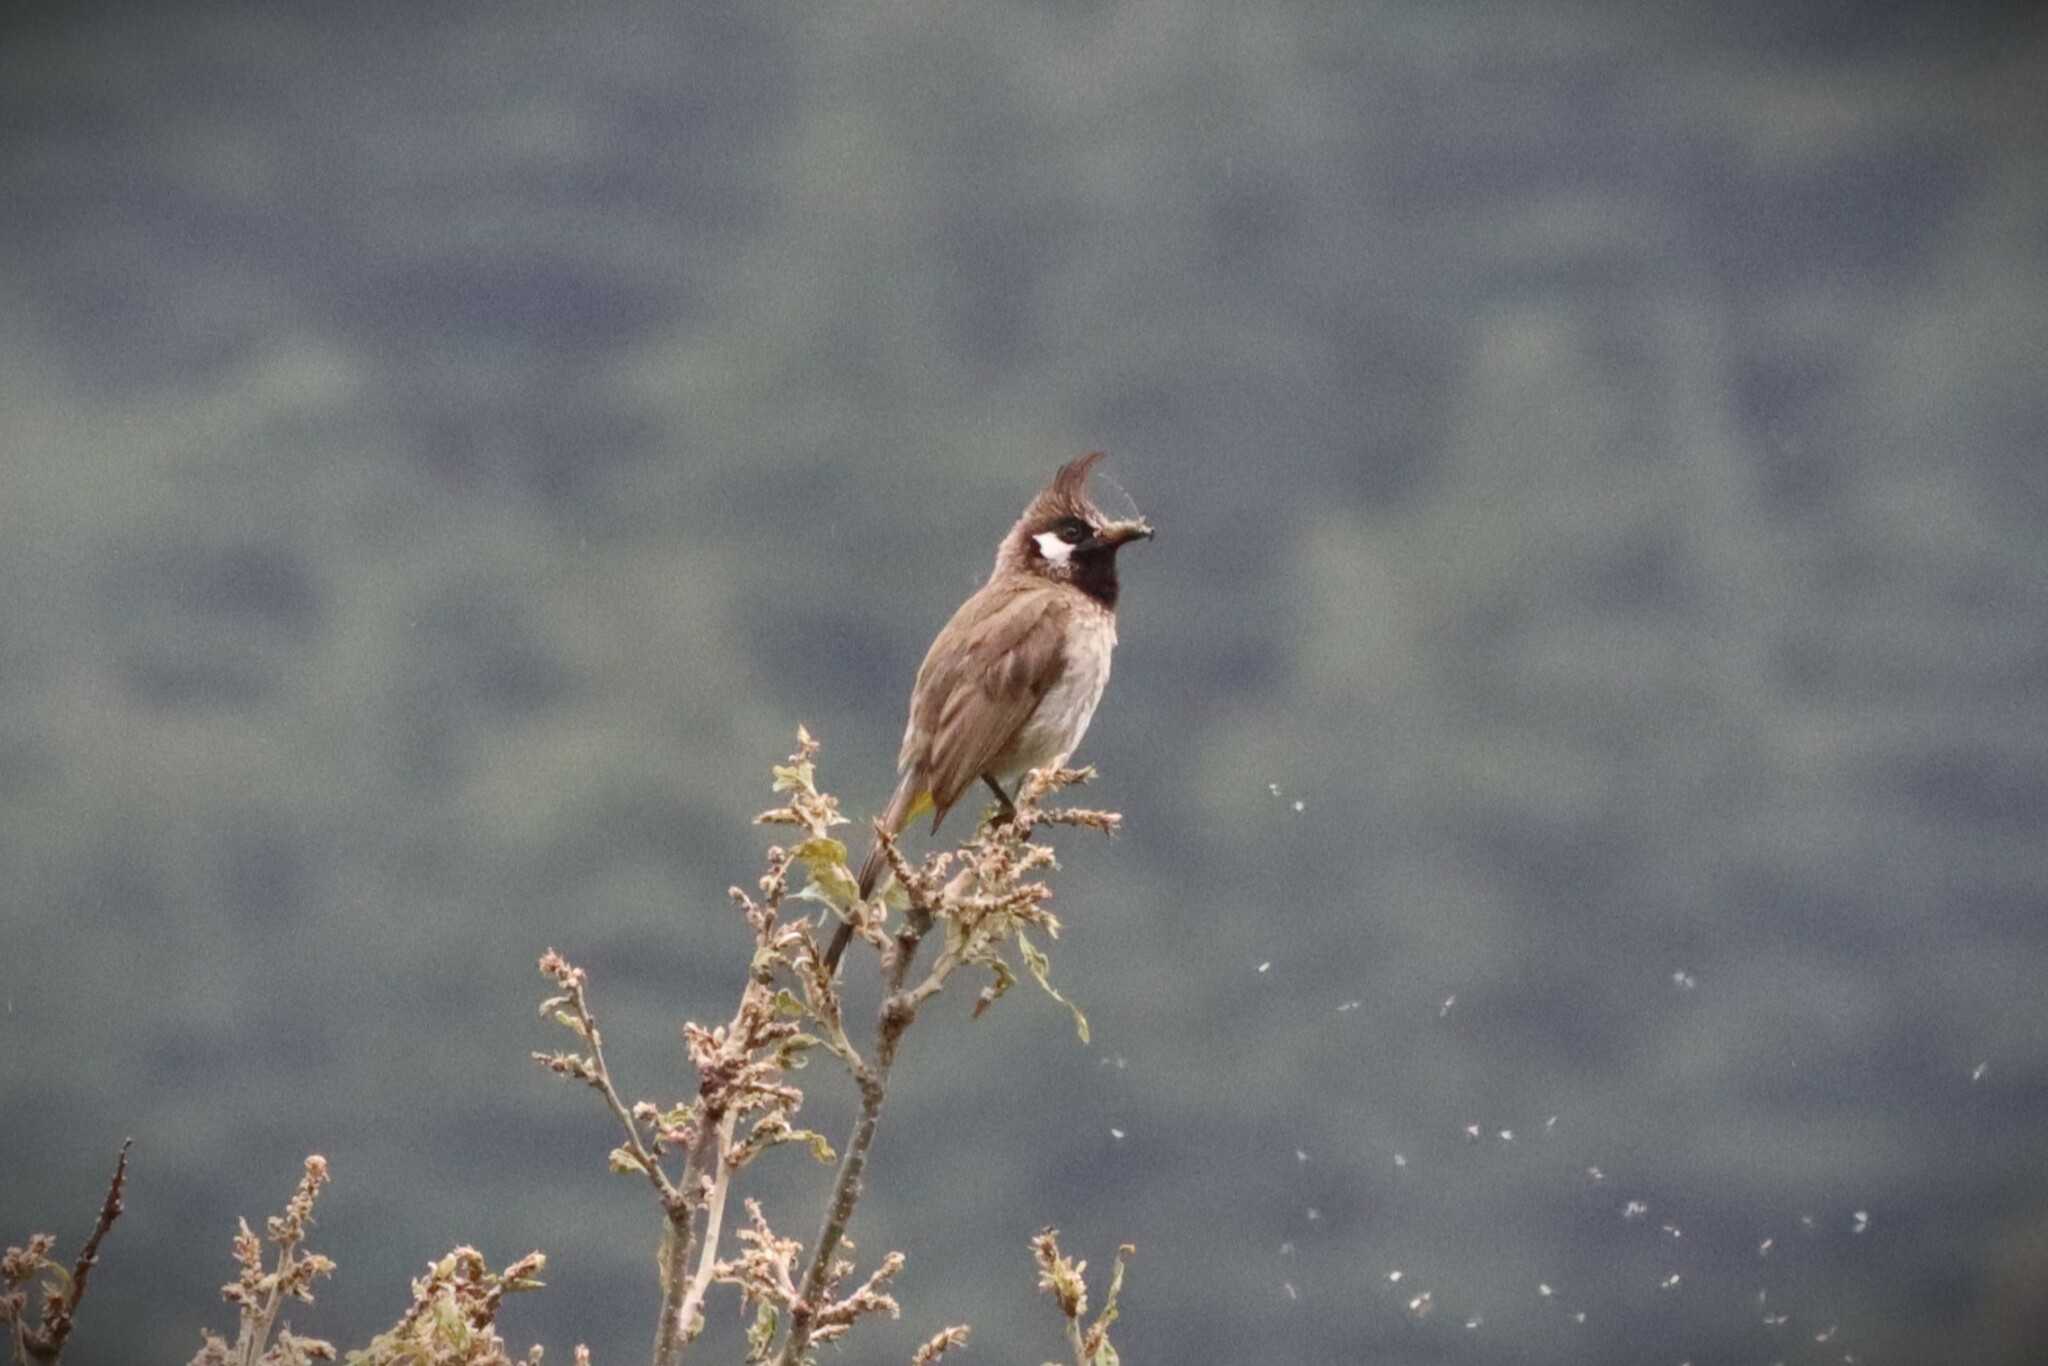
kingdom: Animalia
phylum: Chordata
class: Aves
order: Passeriformes
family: Pycnonotidae
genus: Pycnonotus
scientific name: Pycnonotus leucogenys
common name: Himalayan bulbul
